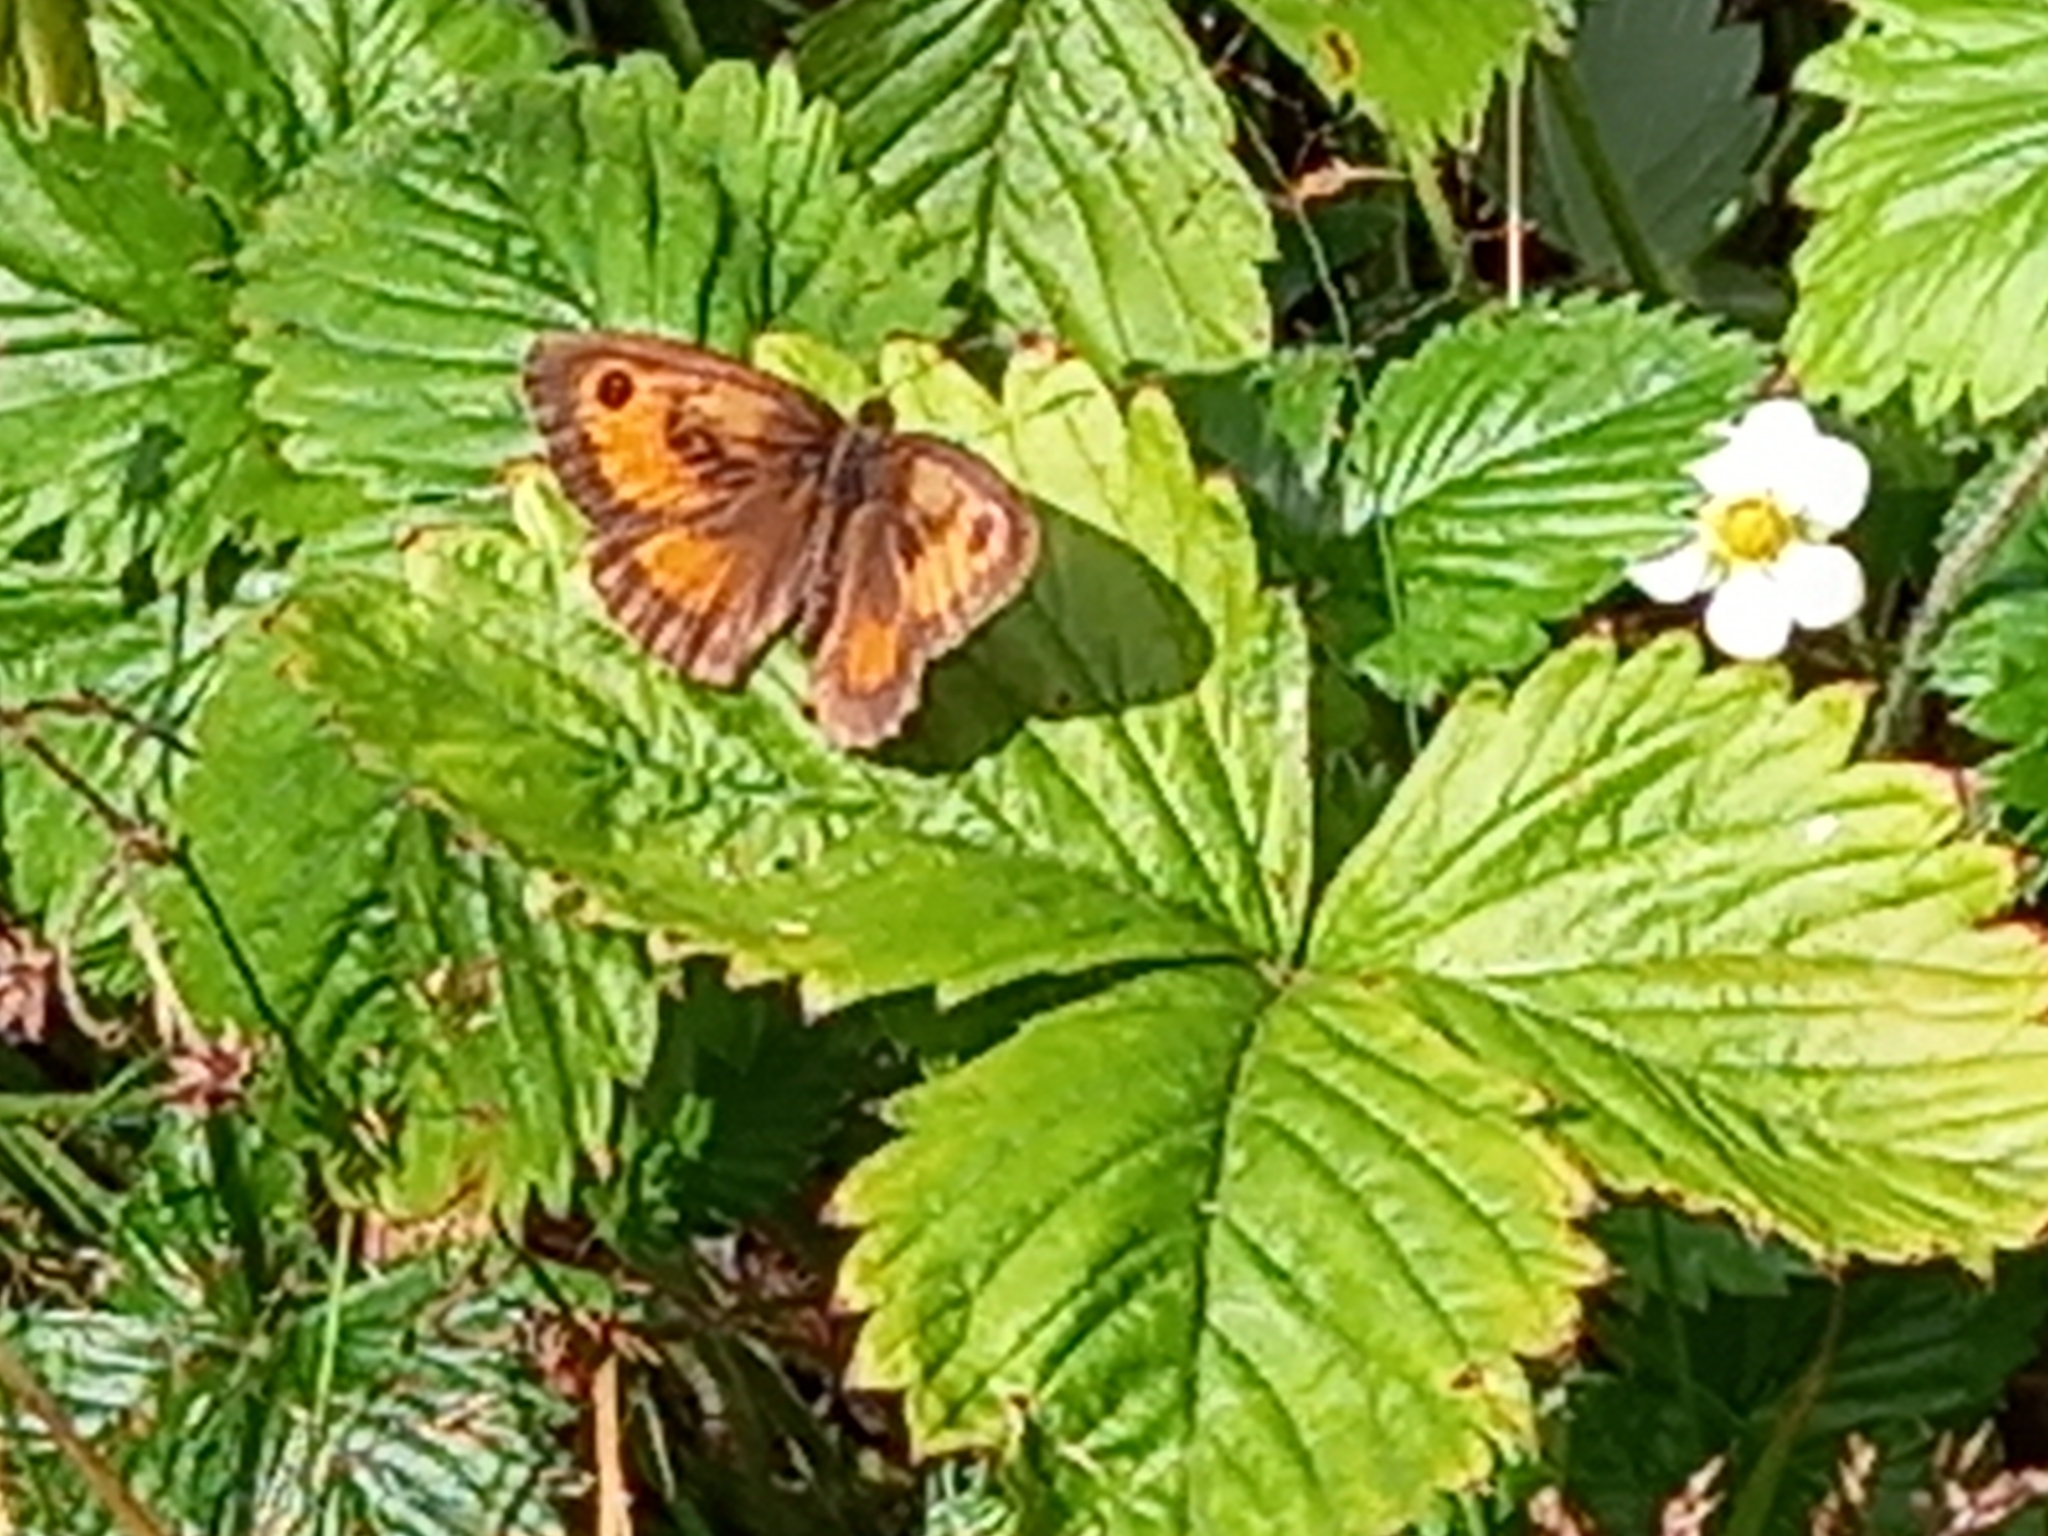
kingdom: Animalia
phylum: Arthropoda
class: Insecta
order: Lepidoptera
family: Nymphalidae
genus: Pyronia
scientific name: Pyronia tithonus
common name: Gatekeeper
